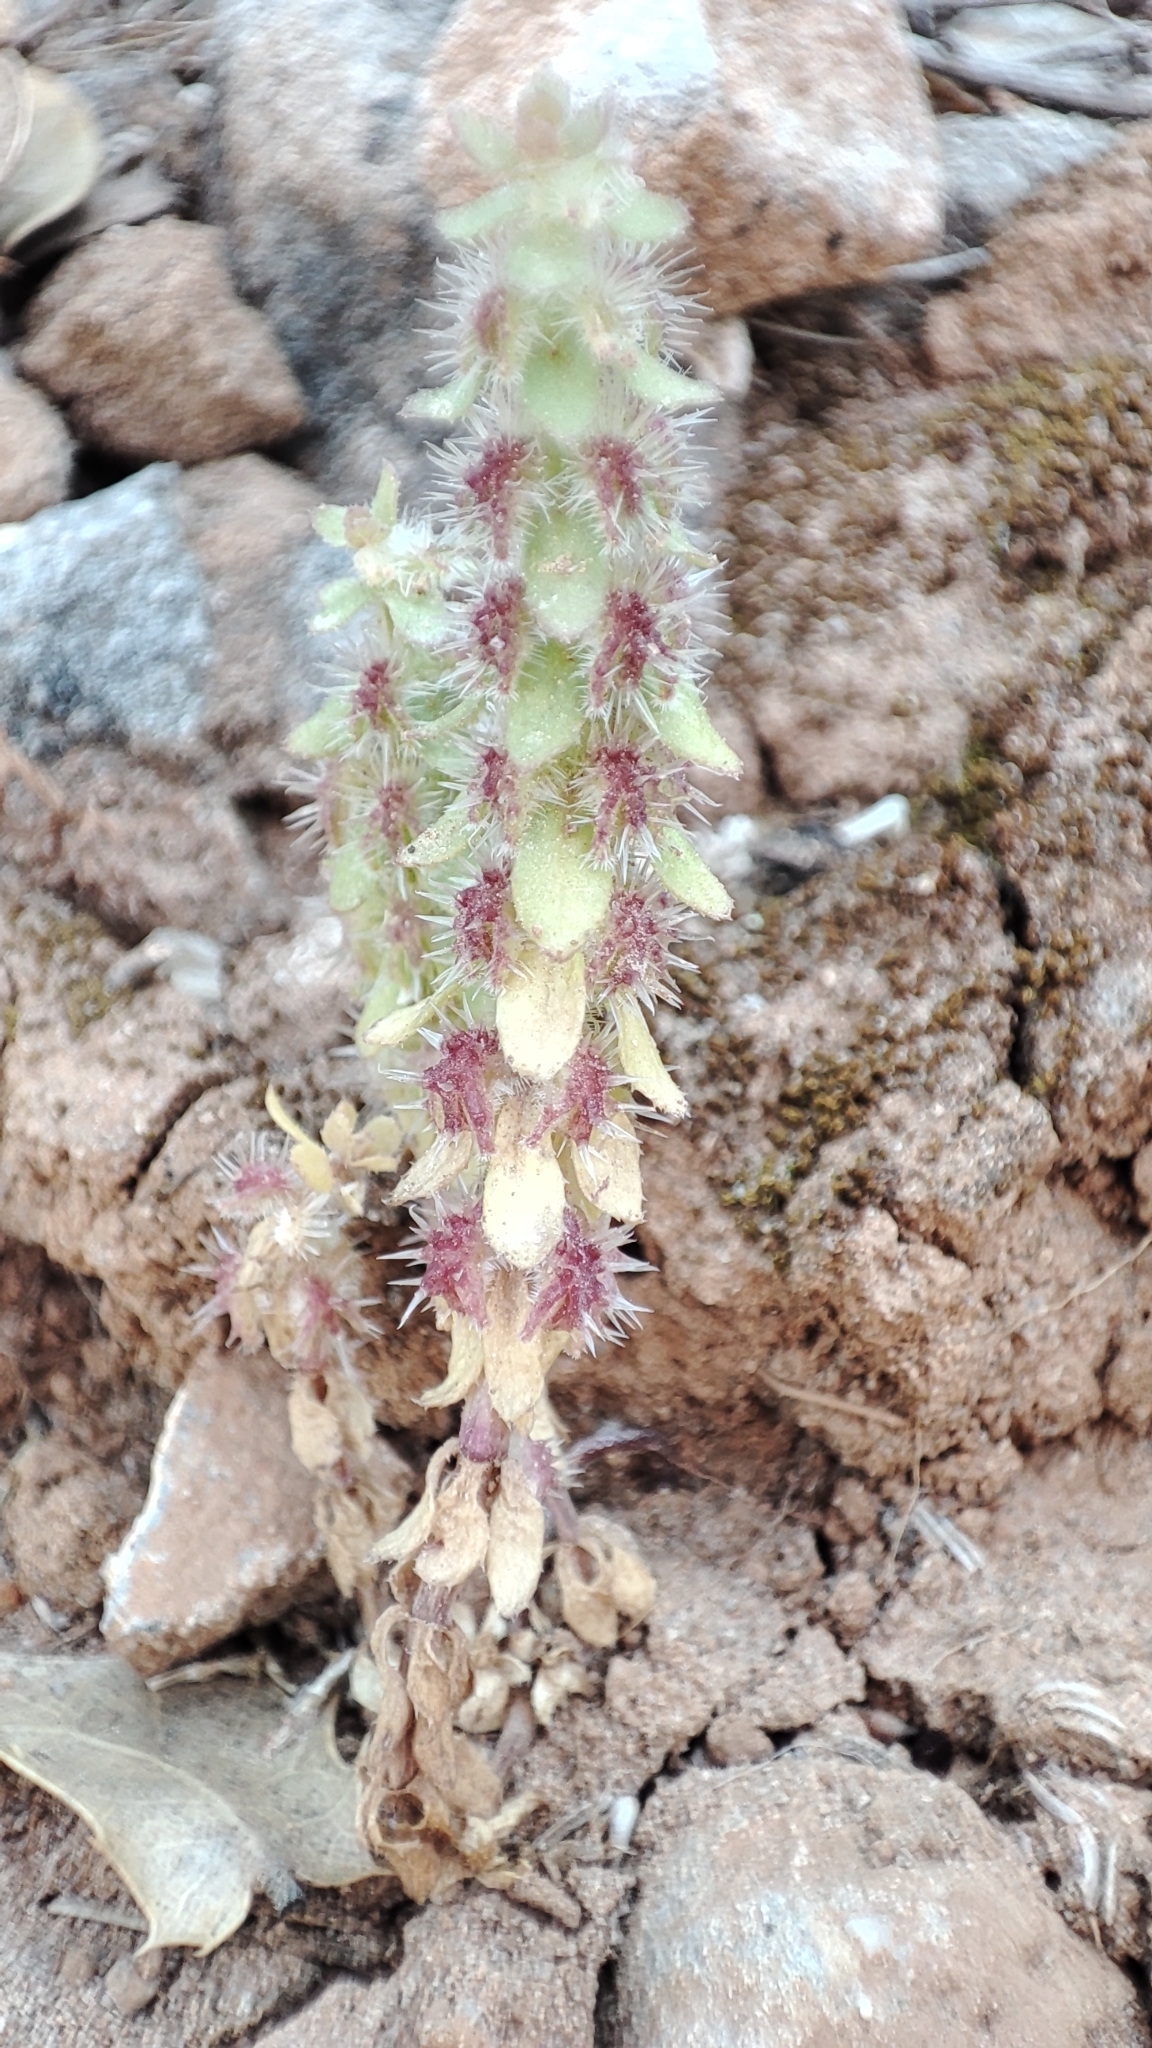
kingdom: Plantae
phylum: Tracheophyta
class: Magnoliopsida
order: Gentianales
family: Rubiaceae
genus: Valantia
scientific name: Valantia hispida
